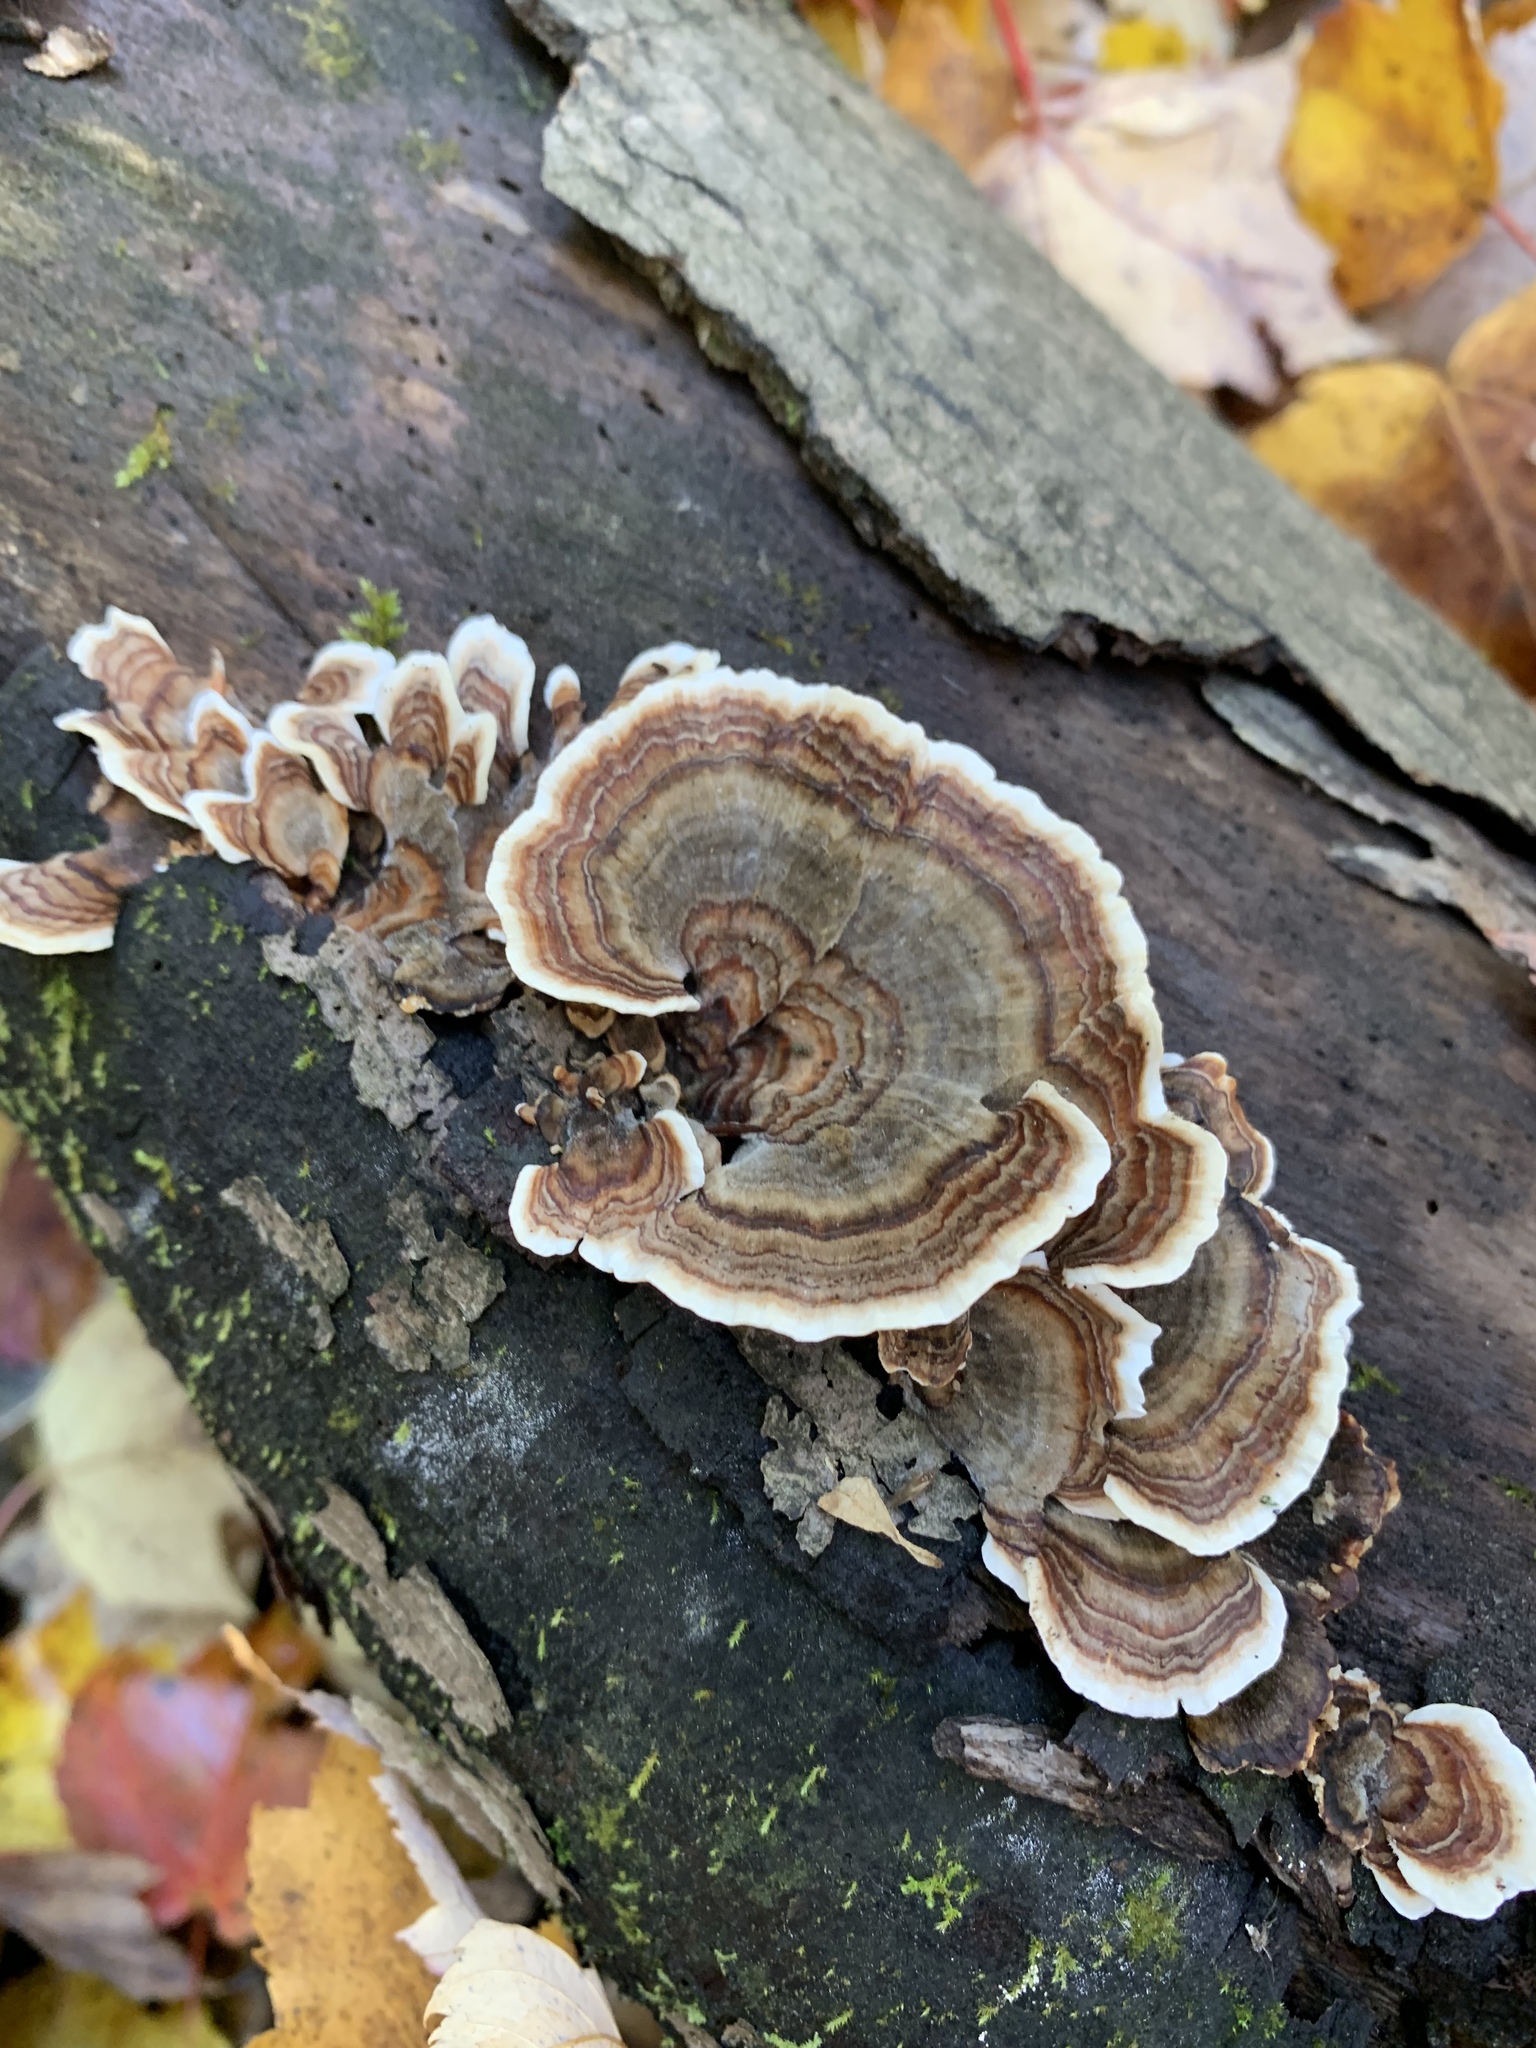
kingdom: Fungi
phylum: Basidiomycota
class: Agaricomycetes
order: Polyporales
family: Polyporaceae
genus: Trametes
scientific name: Trametes versicolor
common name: Turkeytail
